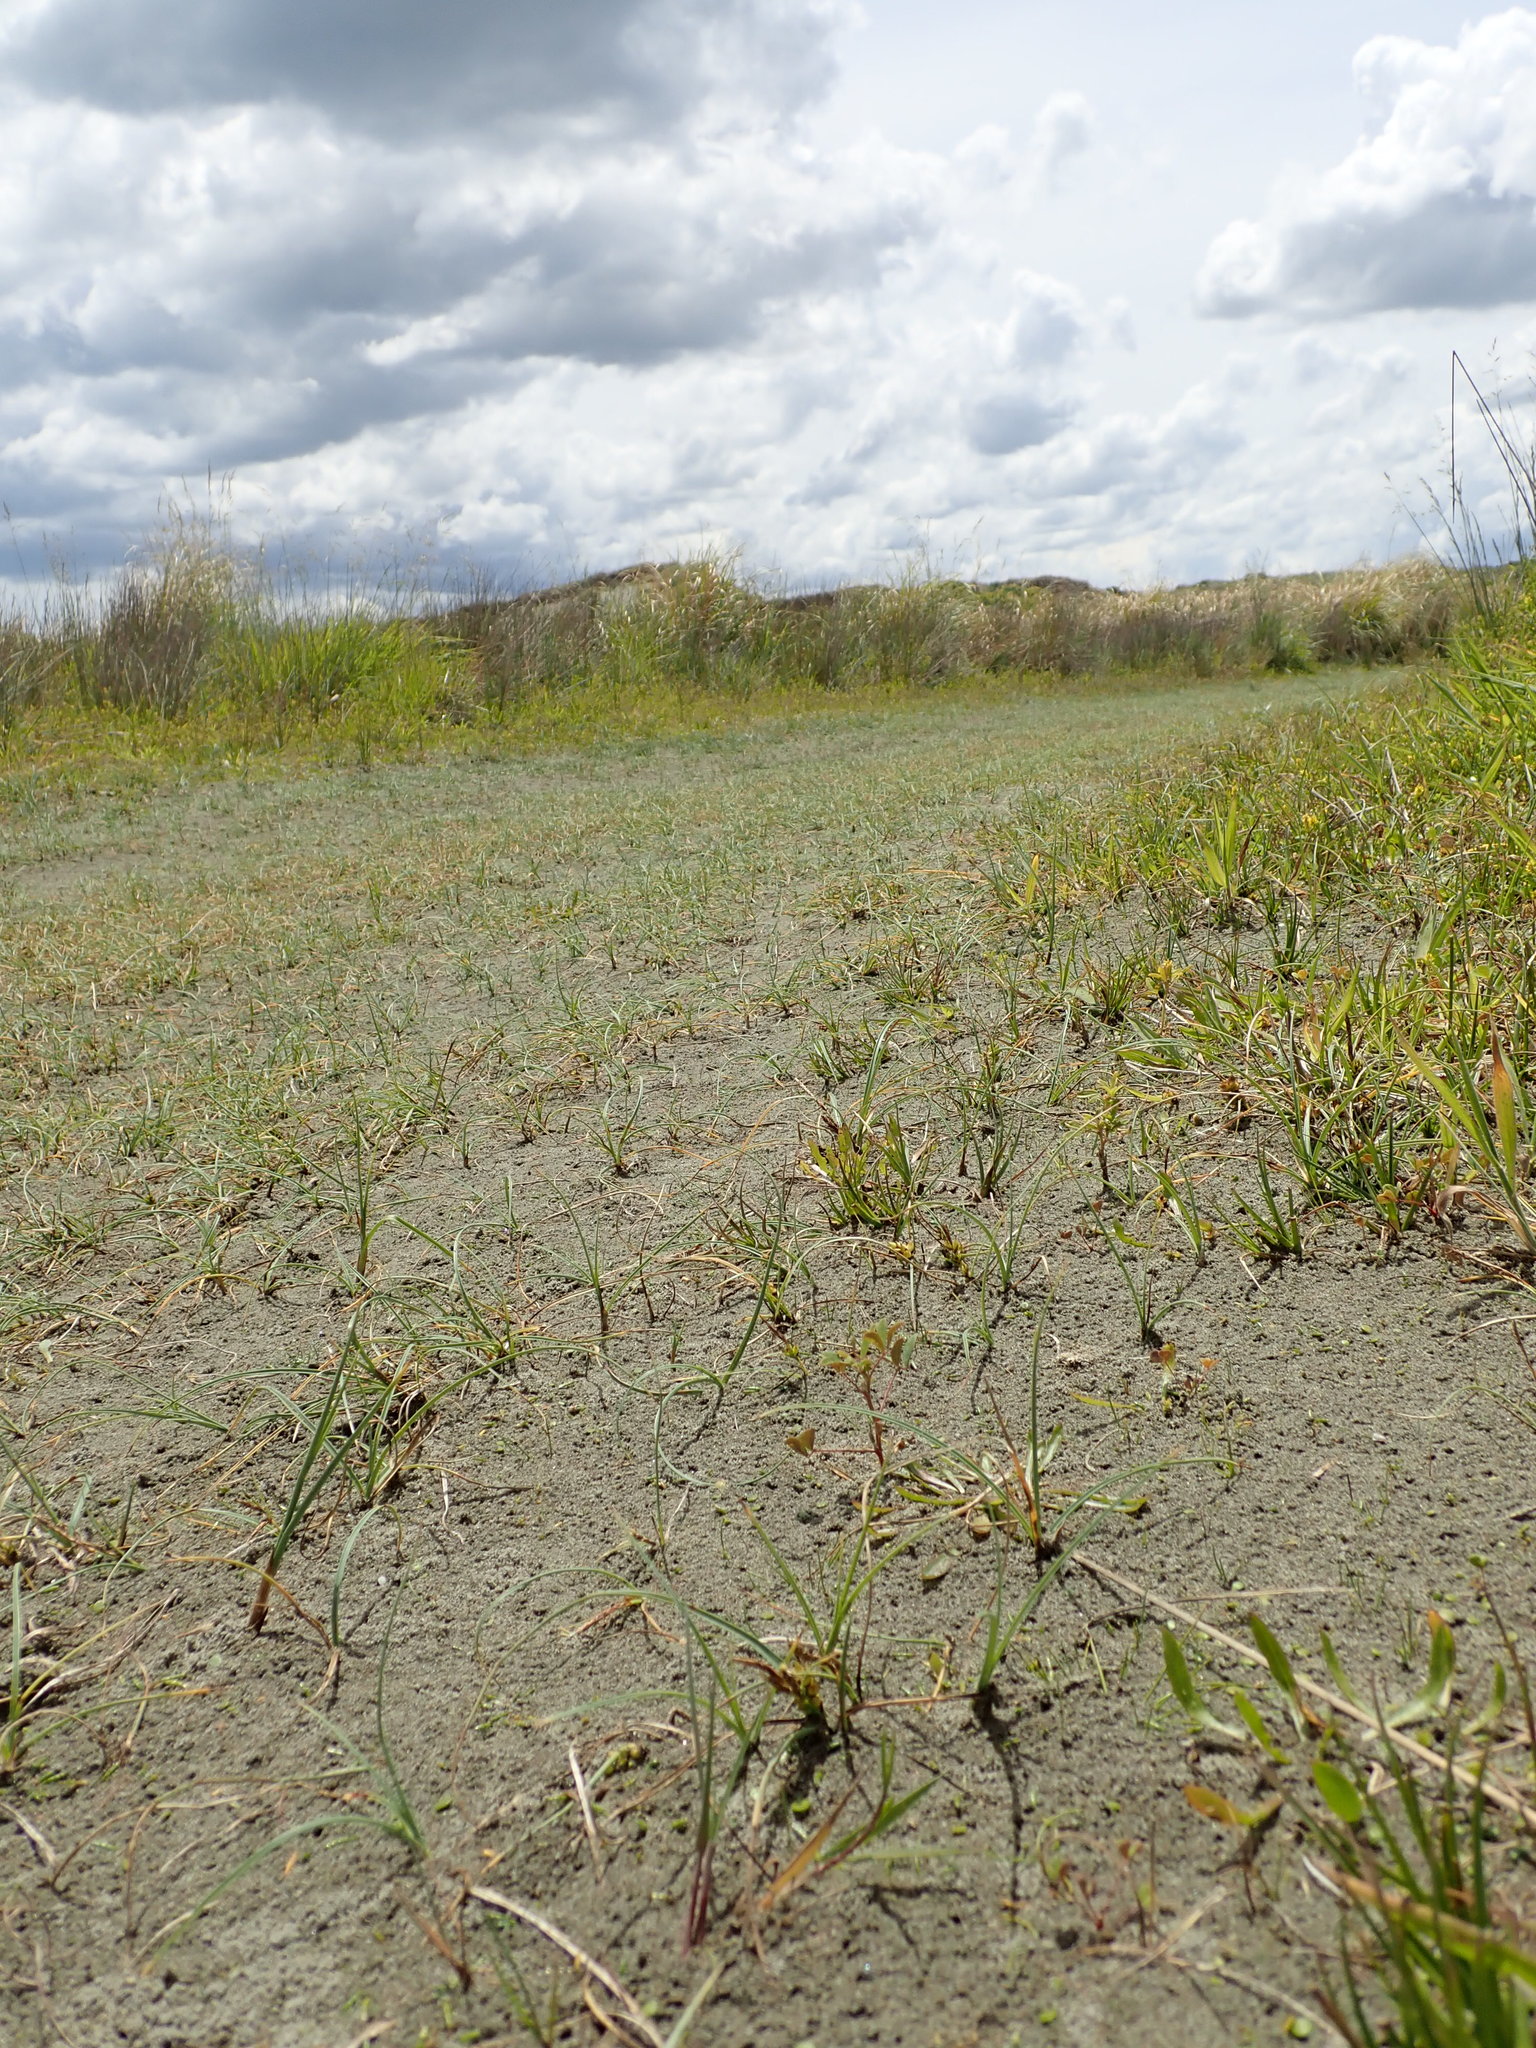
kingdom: Animalia
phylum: Arthropoda
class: Insecta
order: Coleoptera
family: Coccinellidae
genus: Coccinella
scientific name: Coccinella undecimpunctata
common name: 11-spot ladybird
